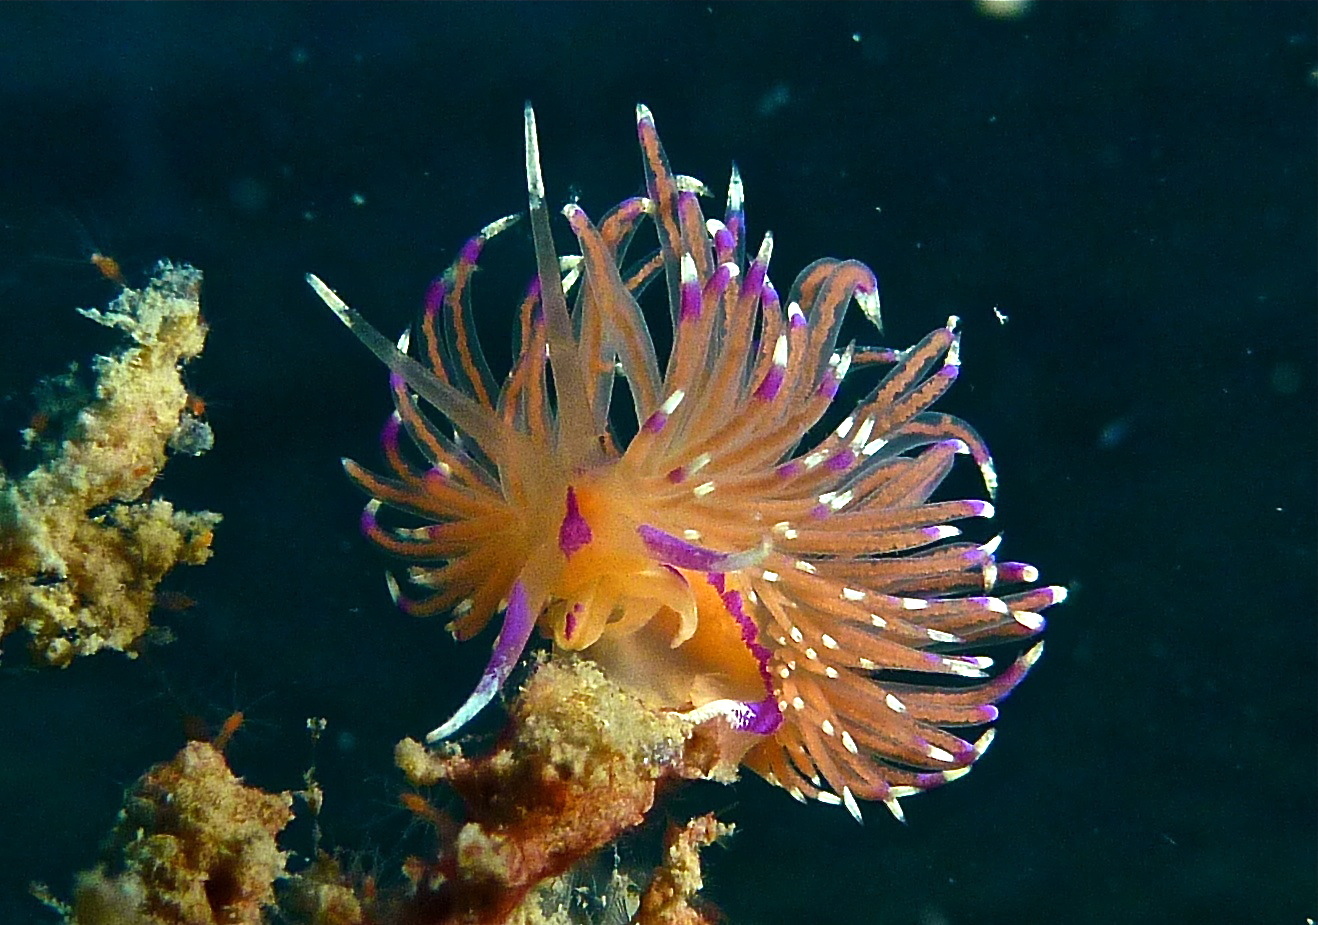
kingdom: Animalia
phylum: Mollusca
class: Gastropoda
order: Nudibranchia
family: Unidentiidae
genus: Unidentia
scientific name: Unidentia aliciae
